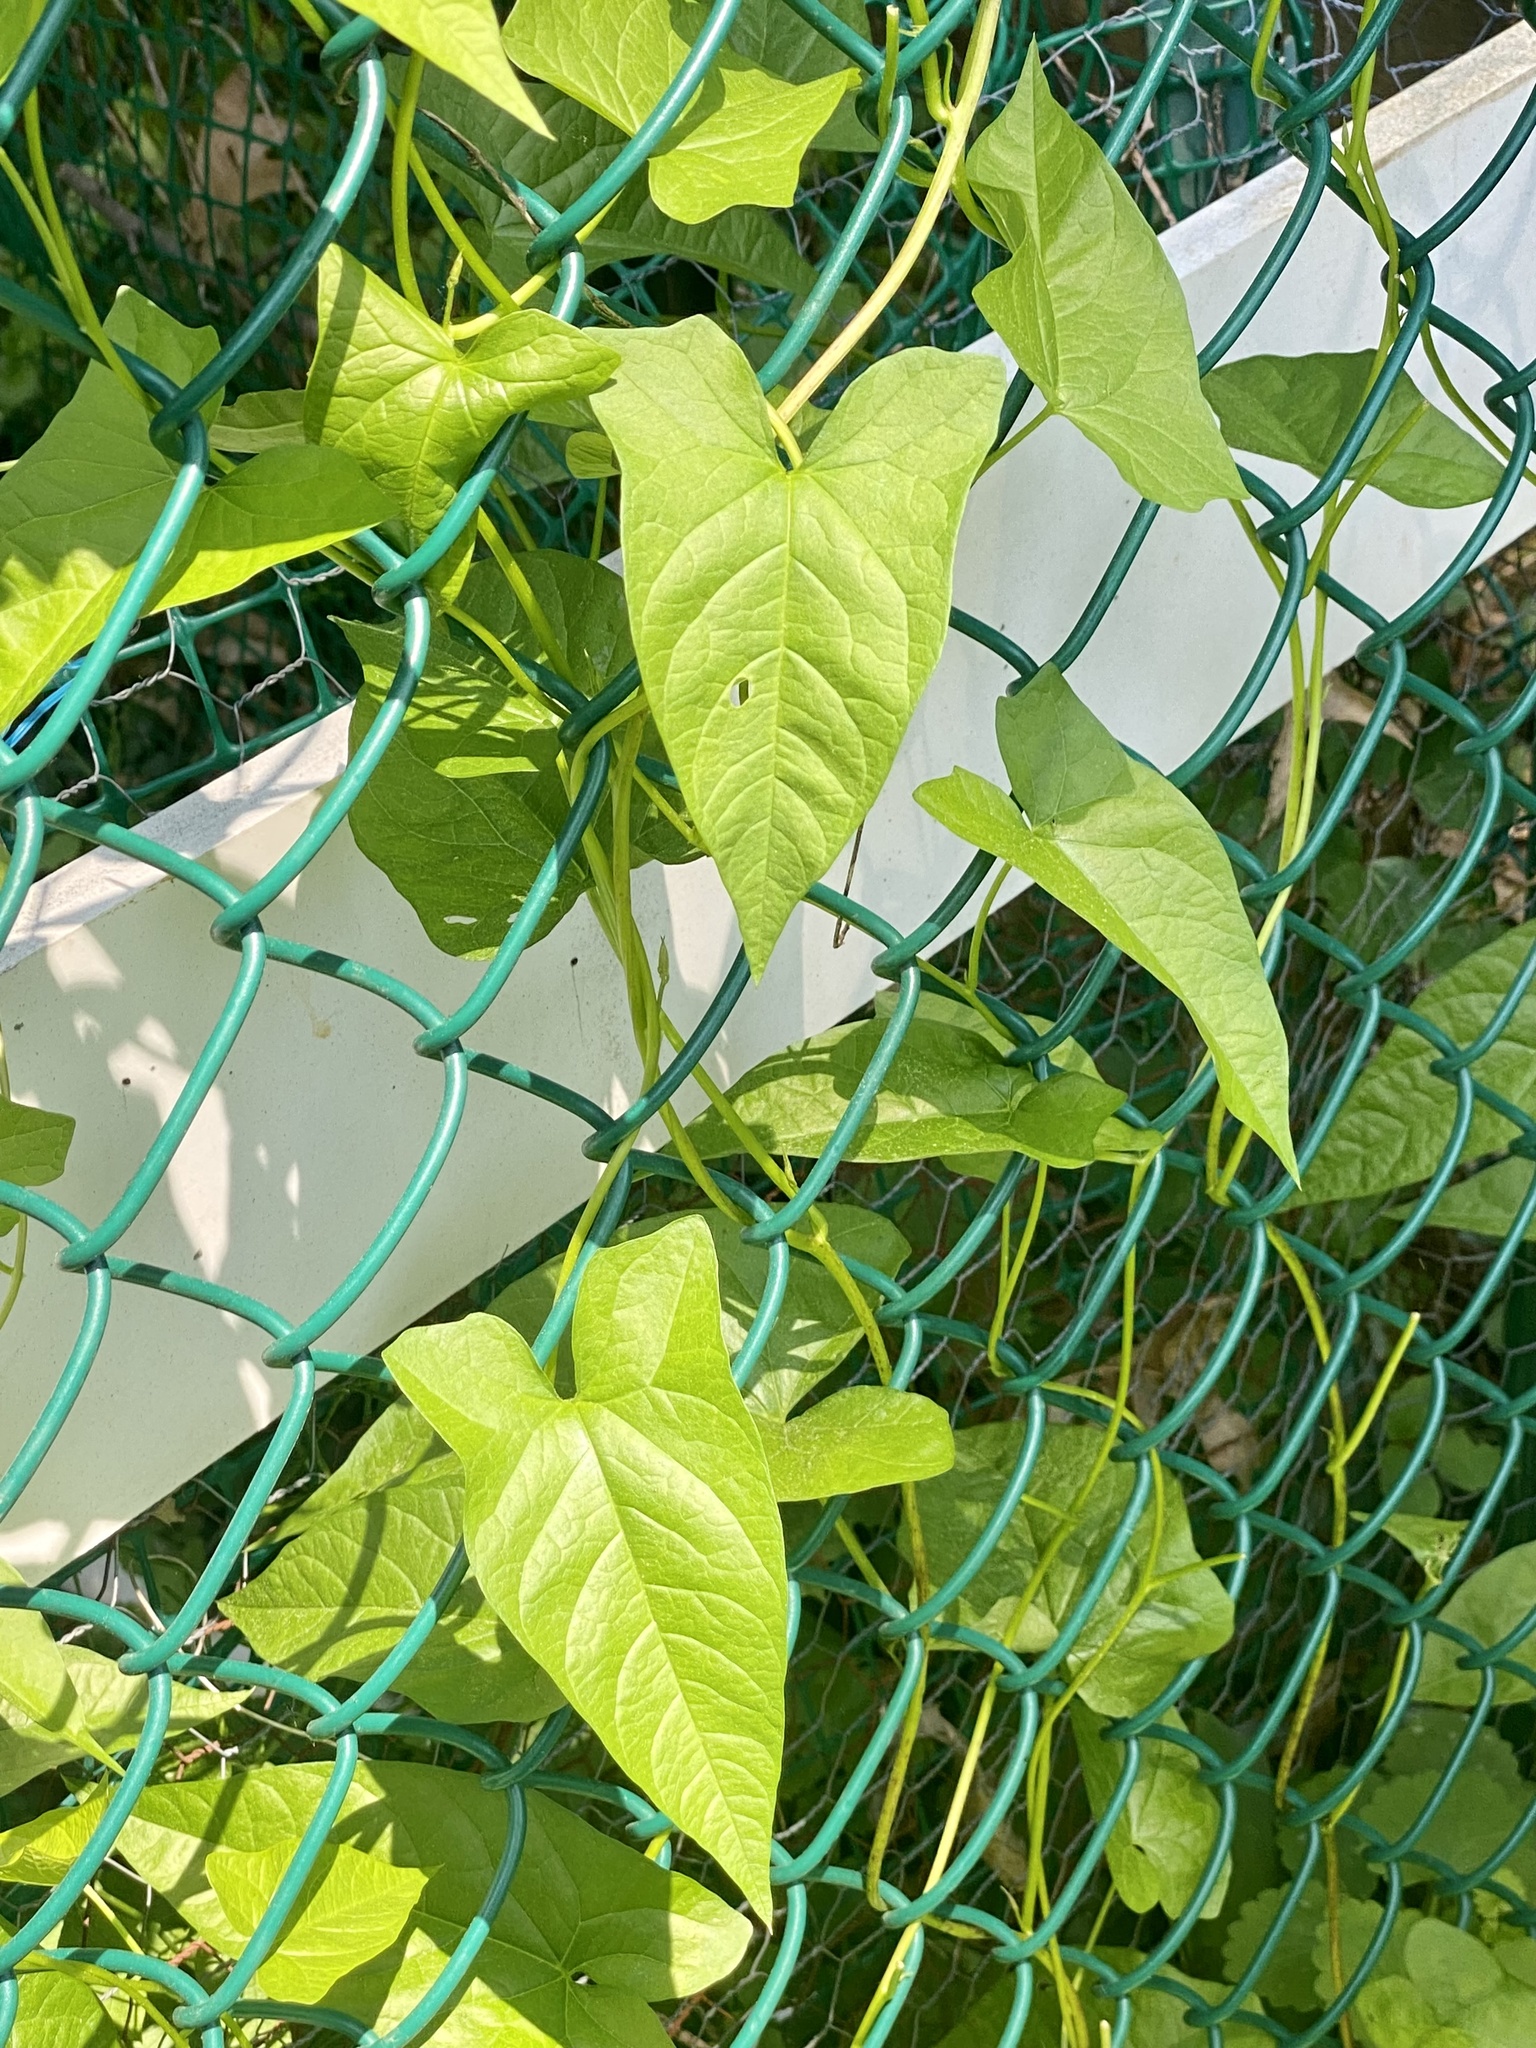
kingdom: Plantae
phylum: Tracheophyta
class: Magnoliopsida
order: Solanales
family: Convolvulaceae
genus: Calystegia
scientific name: Calystegia sepium
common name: Hedge bindweed
